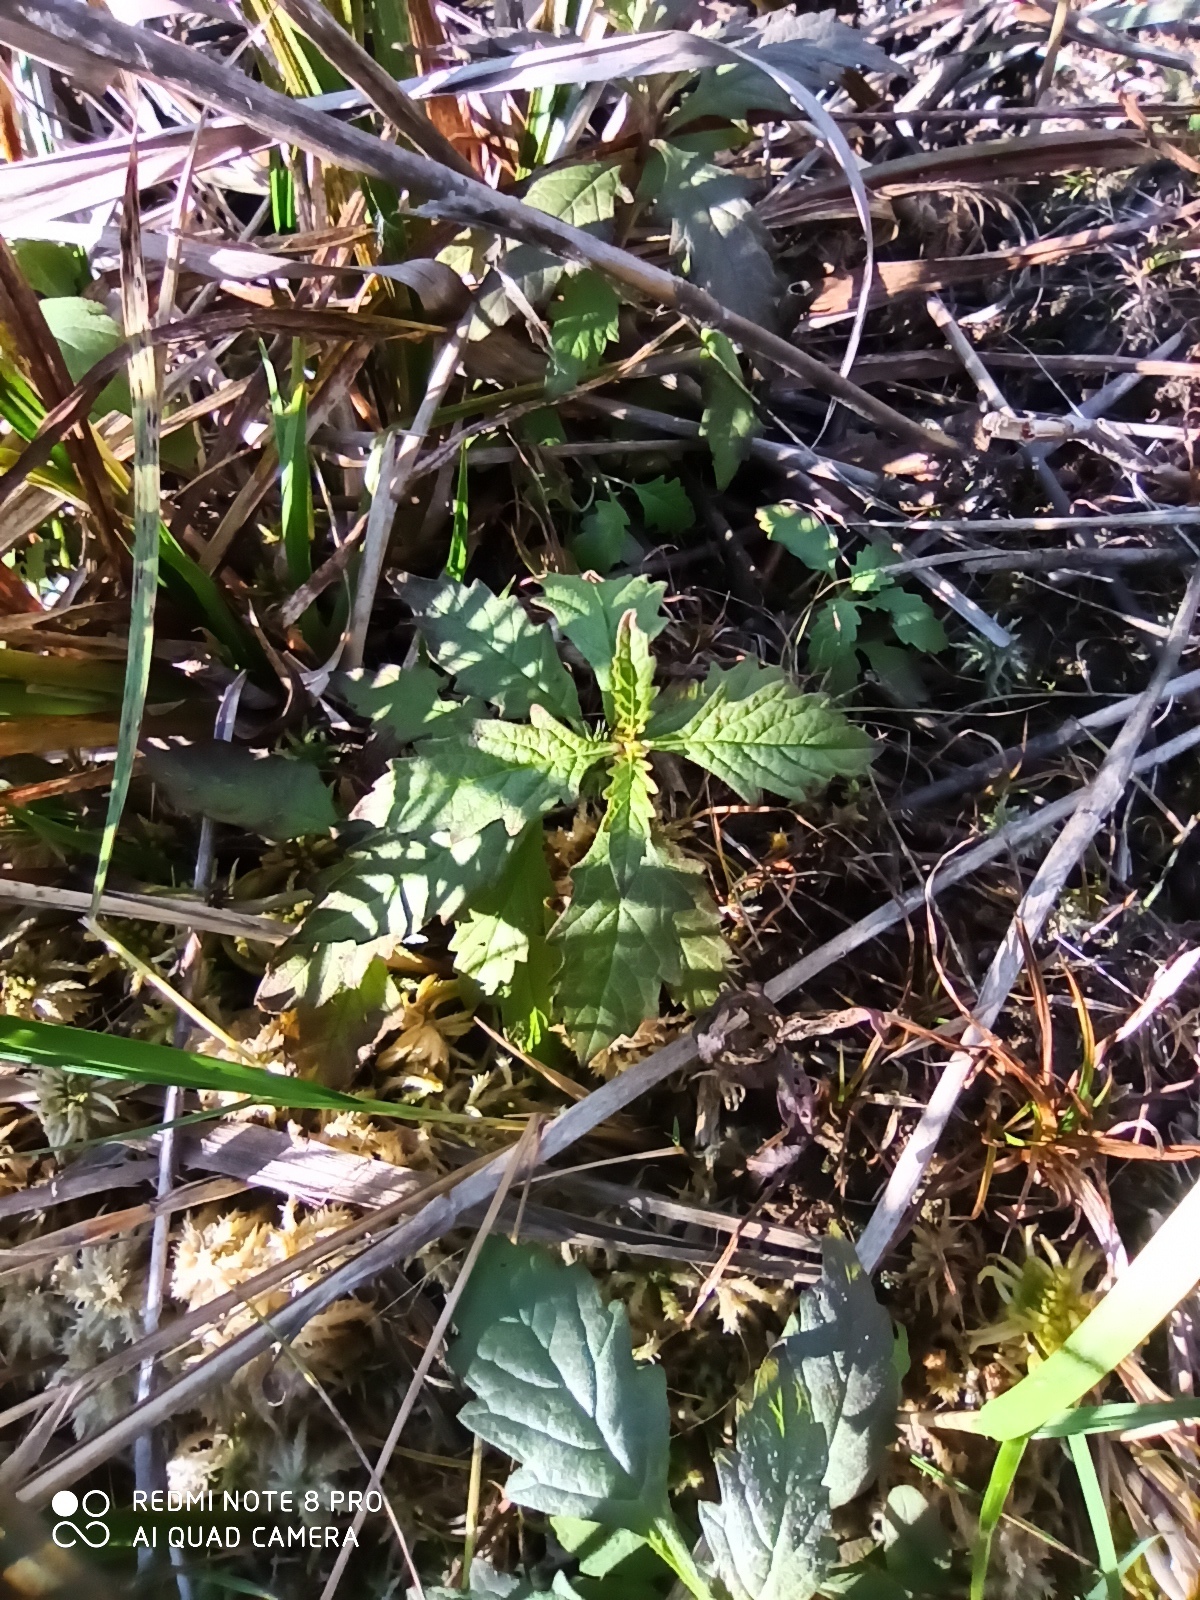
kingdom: Plantae
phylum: Tracheophyta
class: Magnoliopsida
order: Lamiales
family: Lamiaceae
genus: Lycopus
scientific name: Lycopus europaeus
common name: European bugleweed
